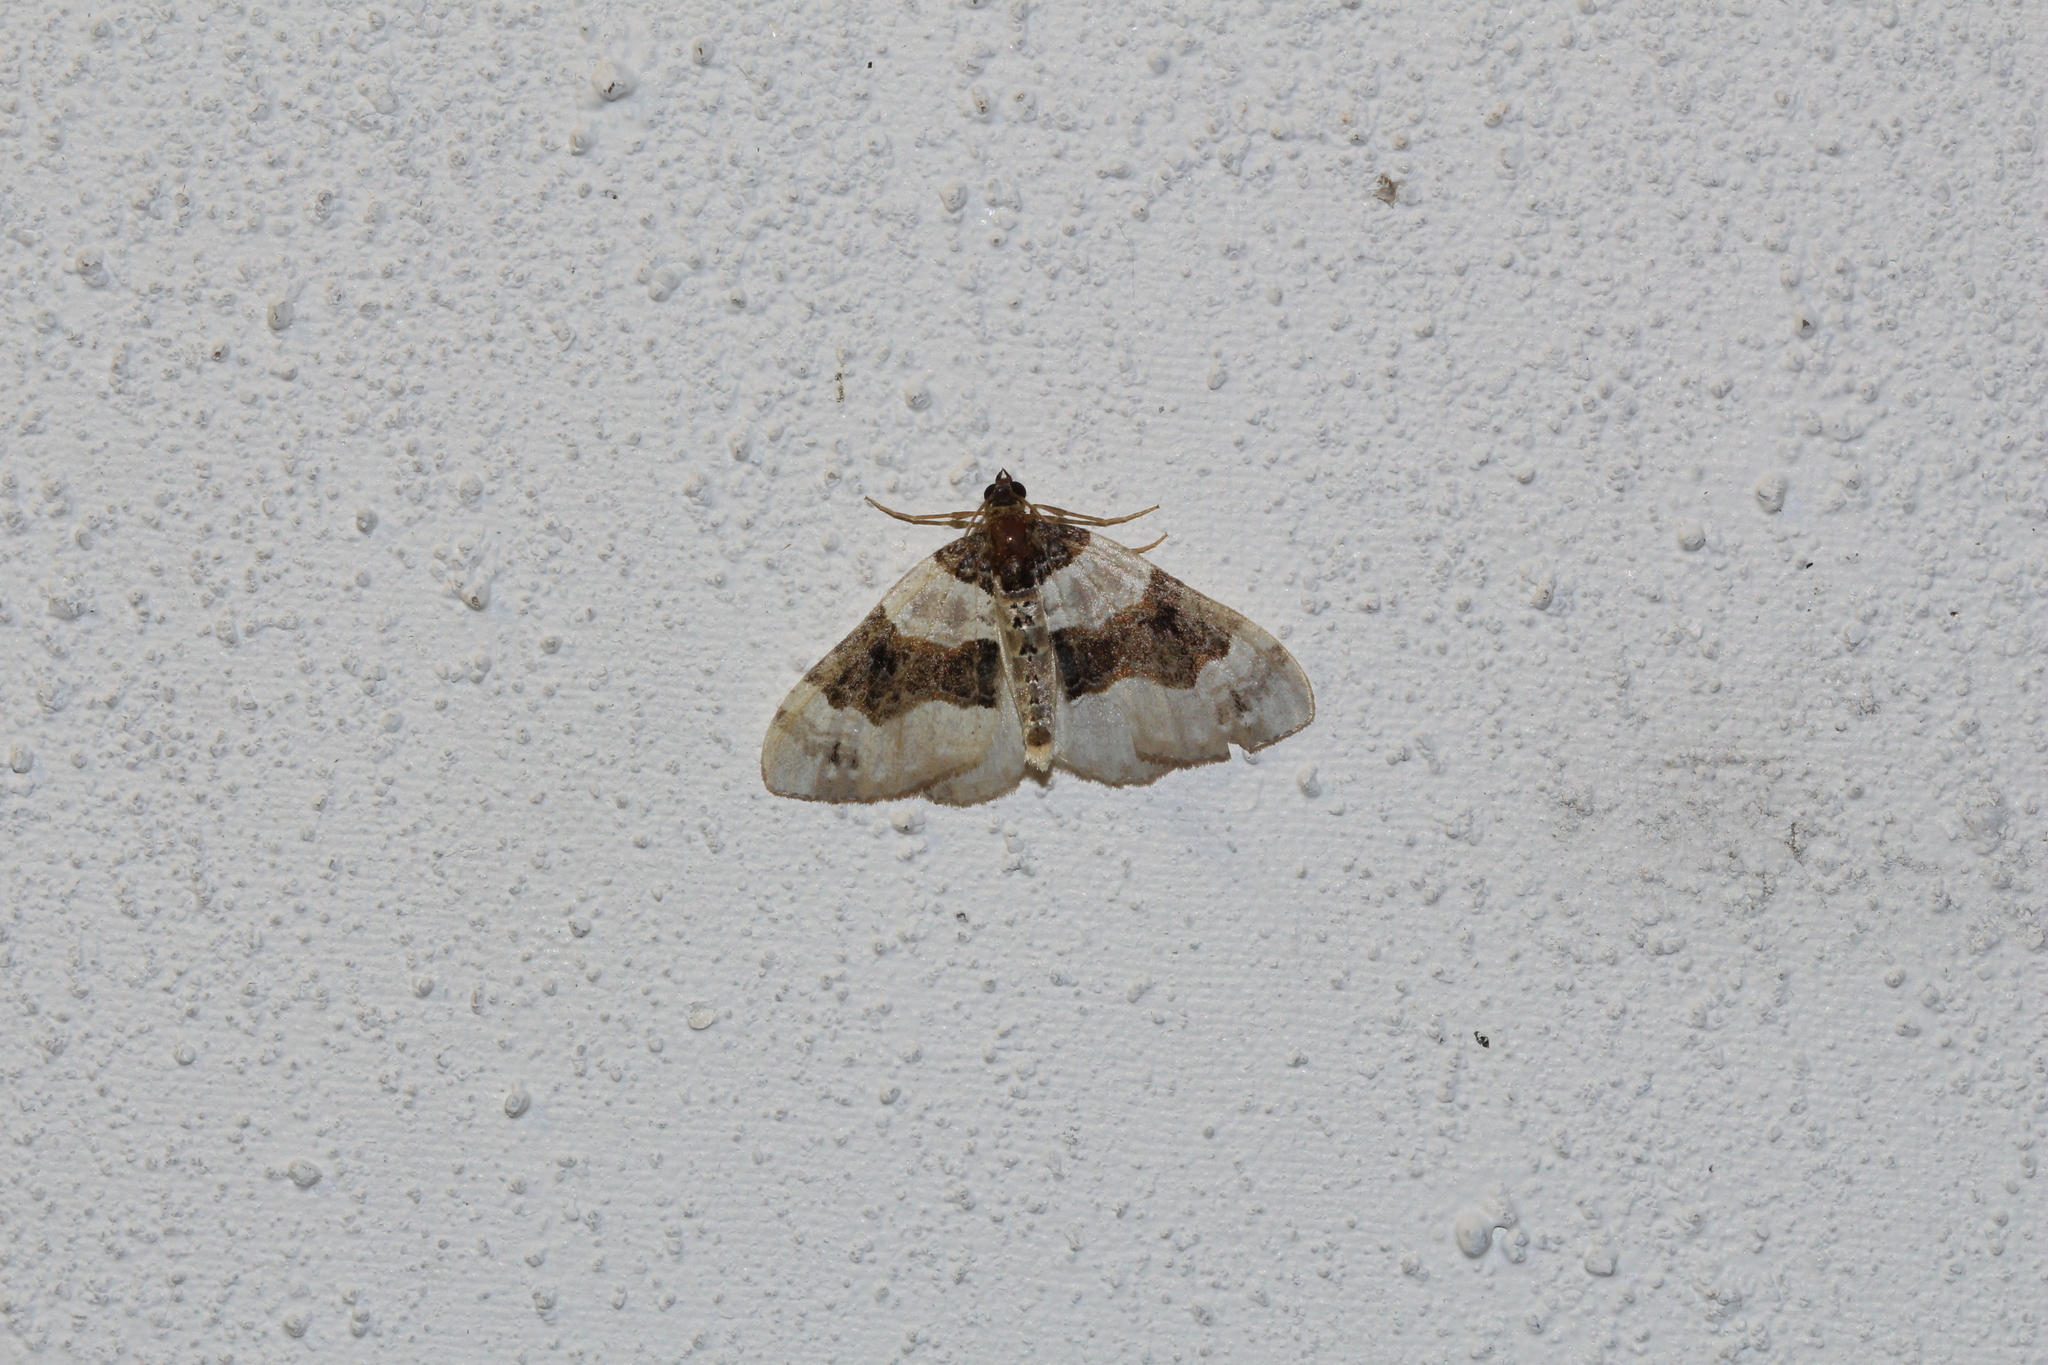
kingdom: Animalia
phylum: Arthropoda
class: Insecta
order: Lepidoptera
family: Geometridae
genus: Cosmorhoe
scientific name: Cosmorhoe ocellata
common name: Purple bar
